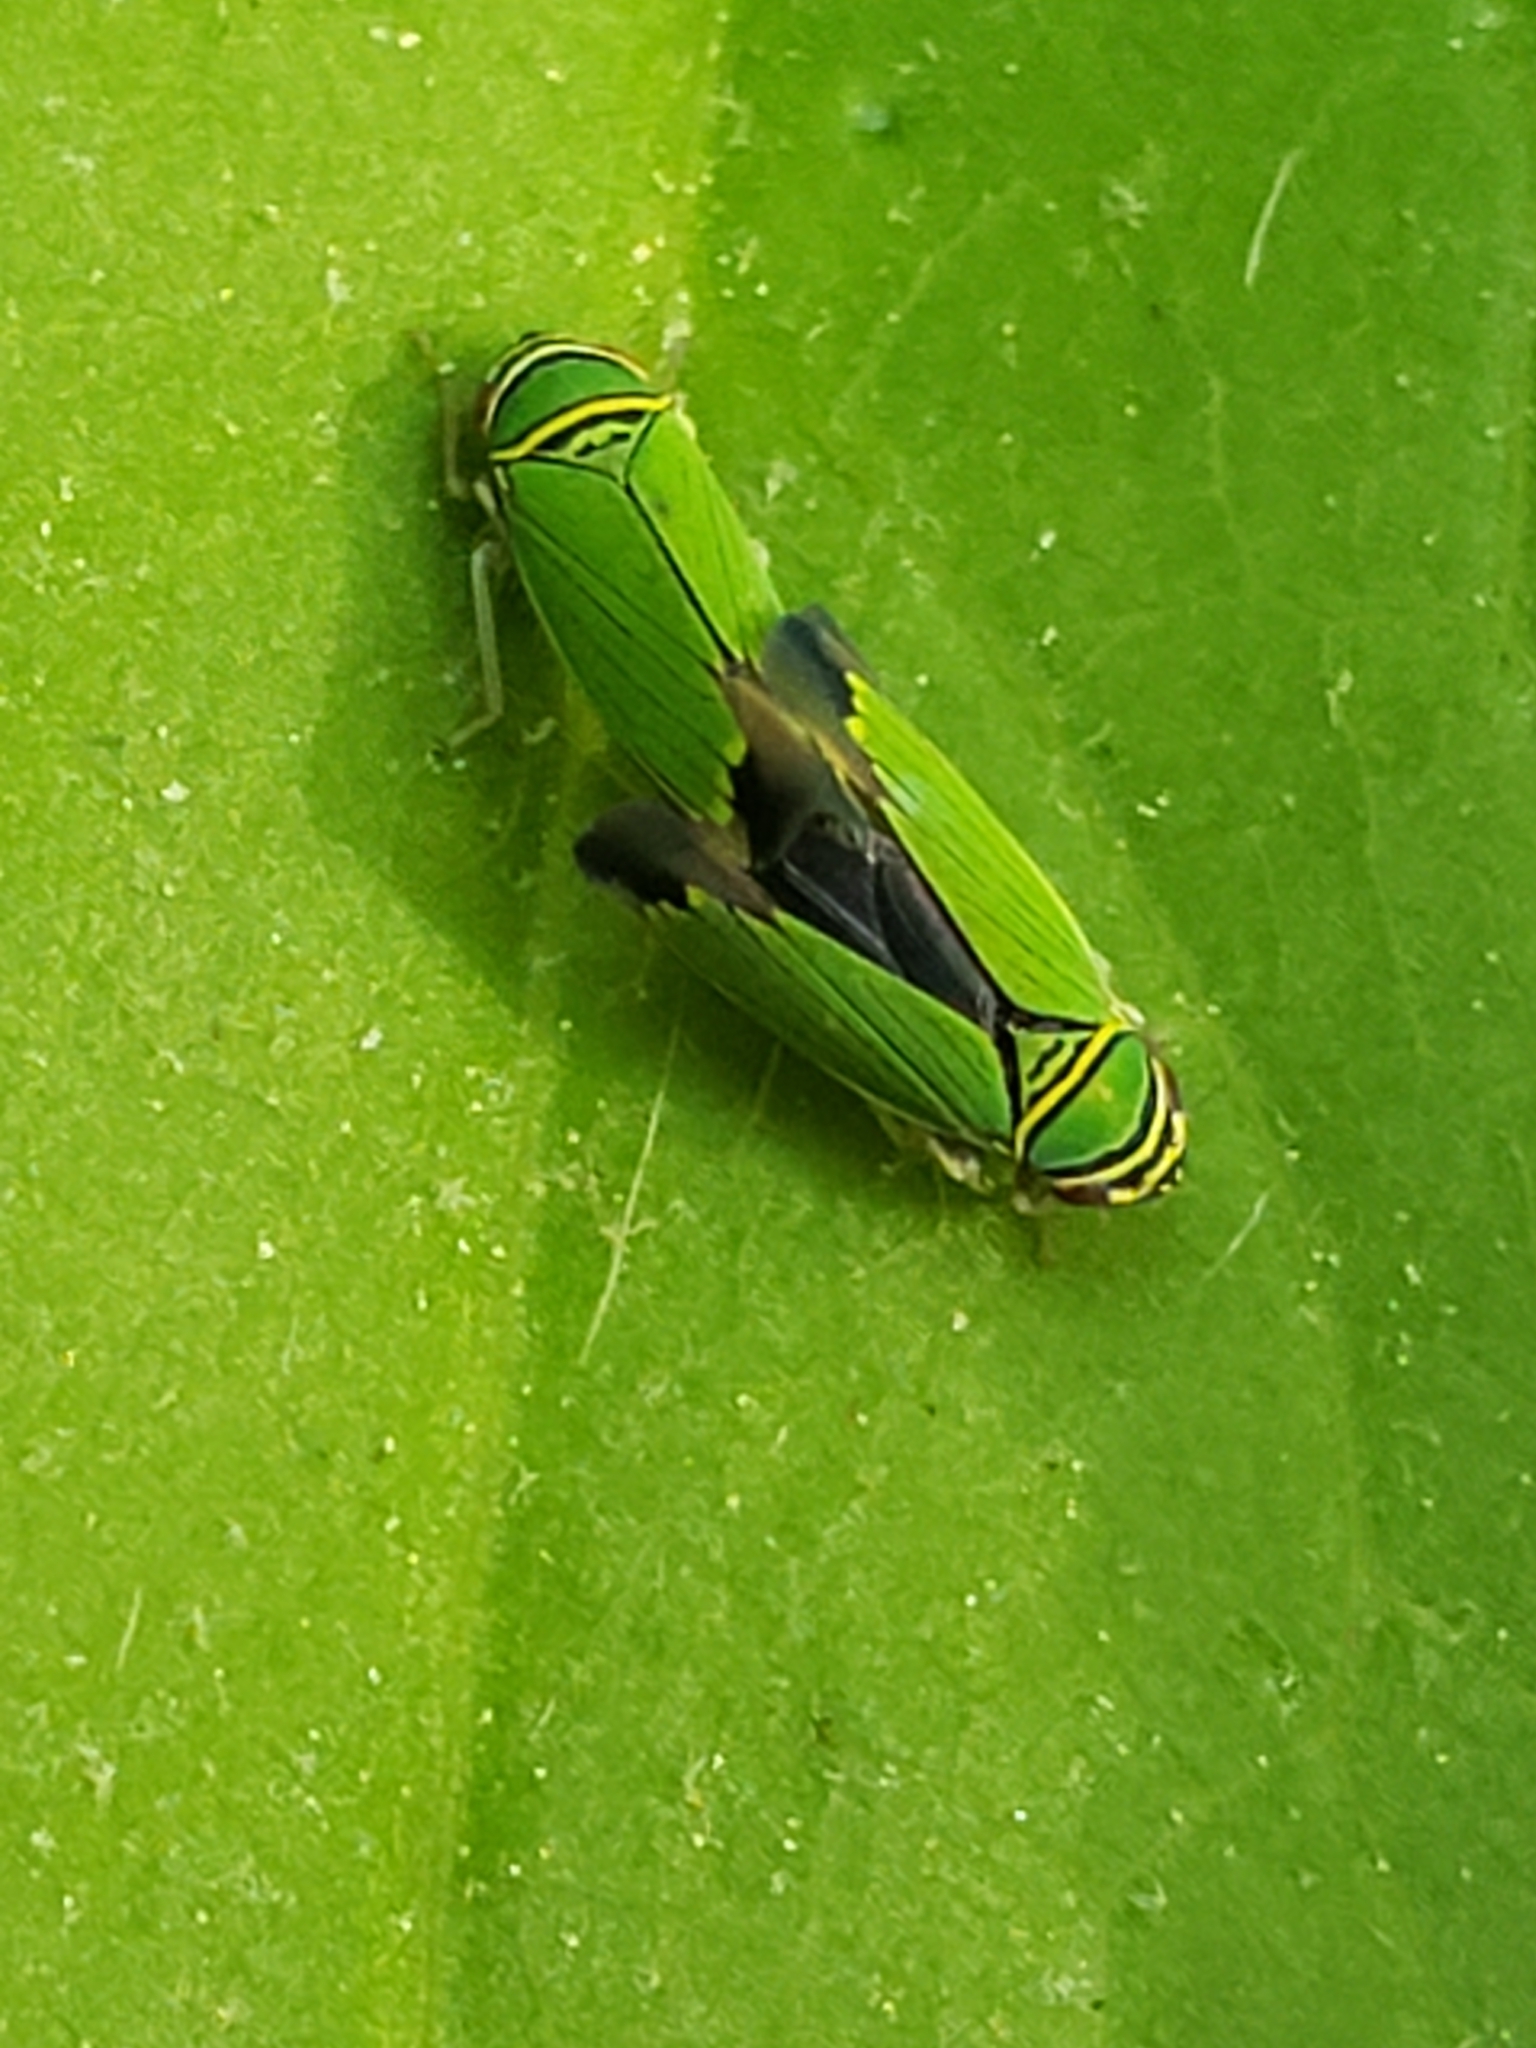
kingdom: Animalia
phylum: Arthropoda
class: Insecta
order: Hemiptera
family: Cicadellidae
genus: Tylozygus
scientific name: Tylozygus geometricus
